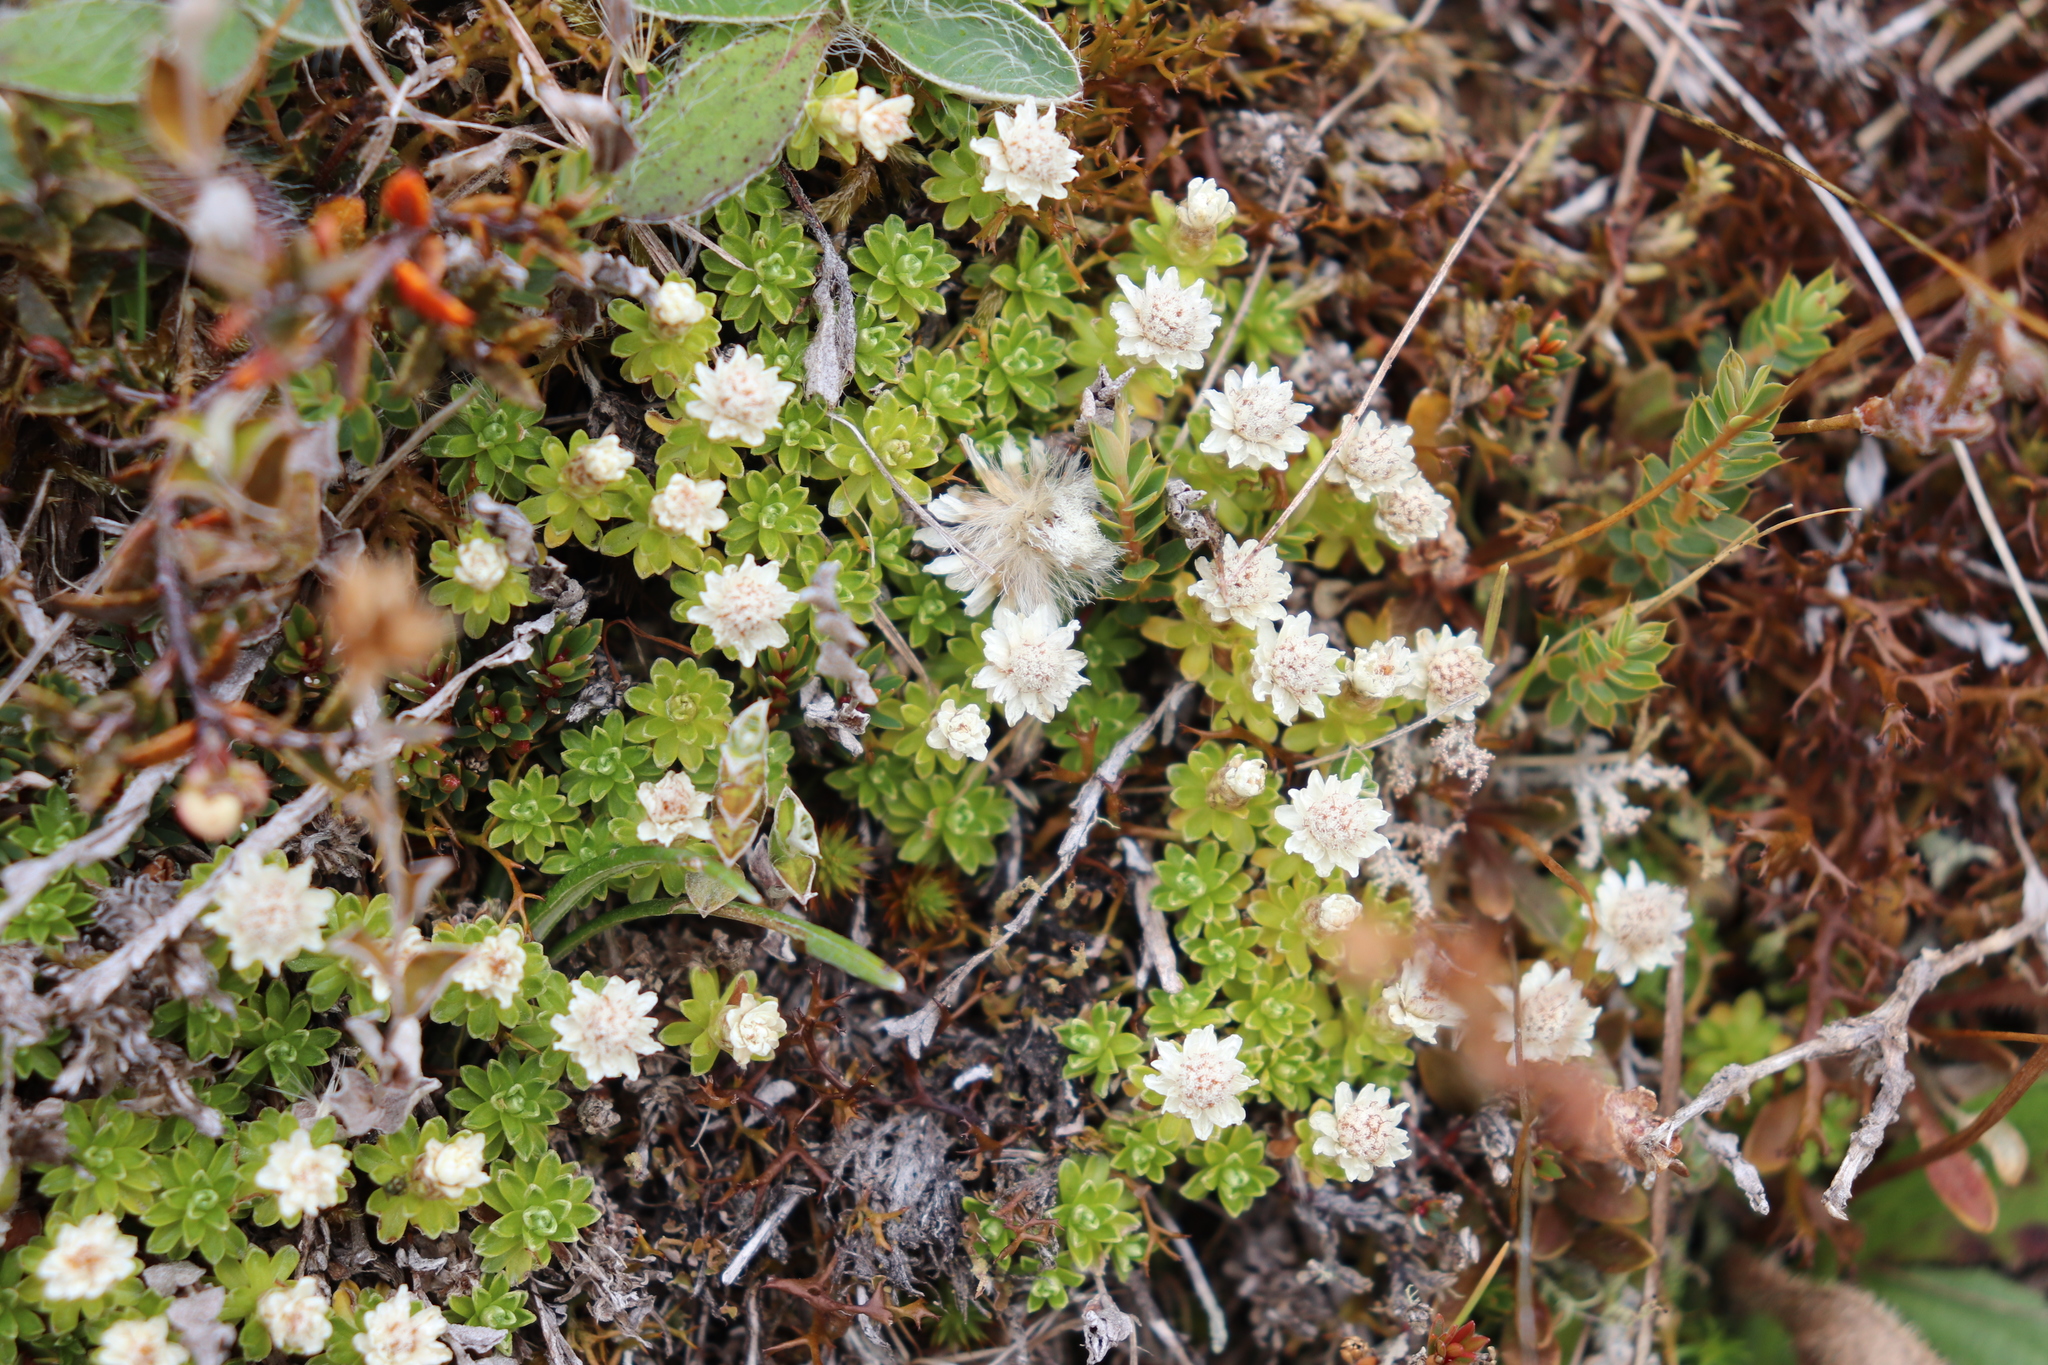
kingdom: Plantae
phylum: Tracheophyta
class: Magnoliopsida
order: Asterales
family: Asteraceae
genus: Raoulia
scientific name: Raoulia subsericea
